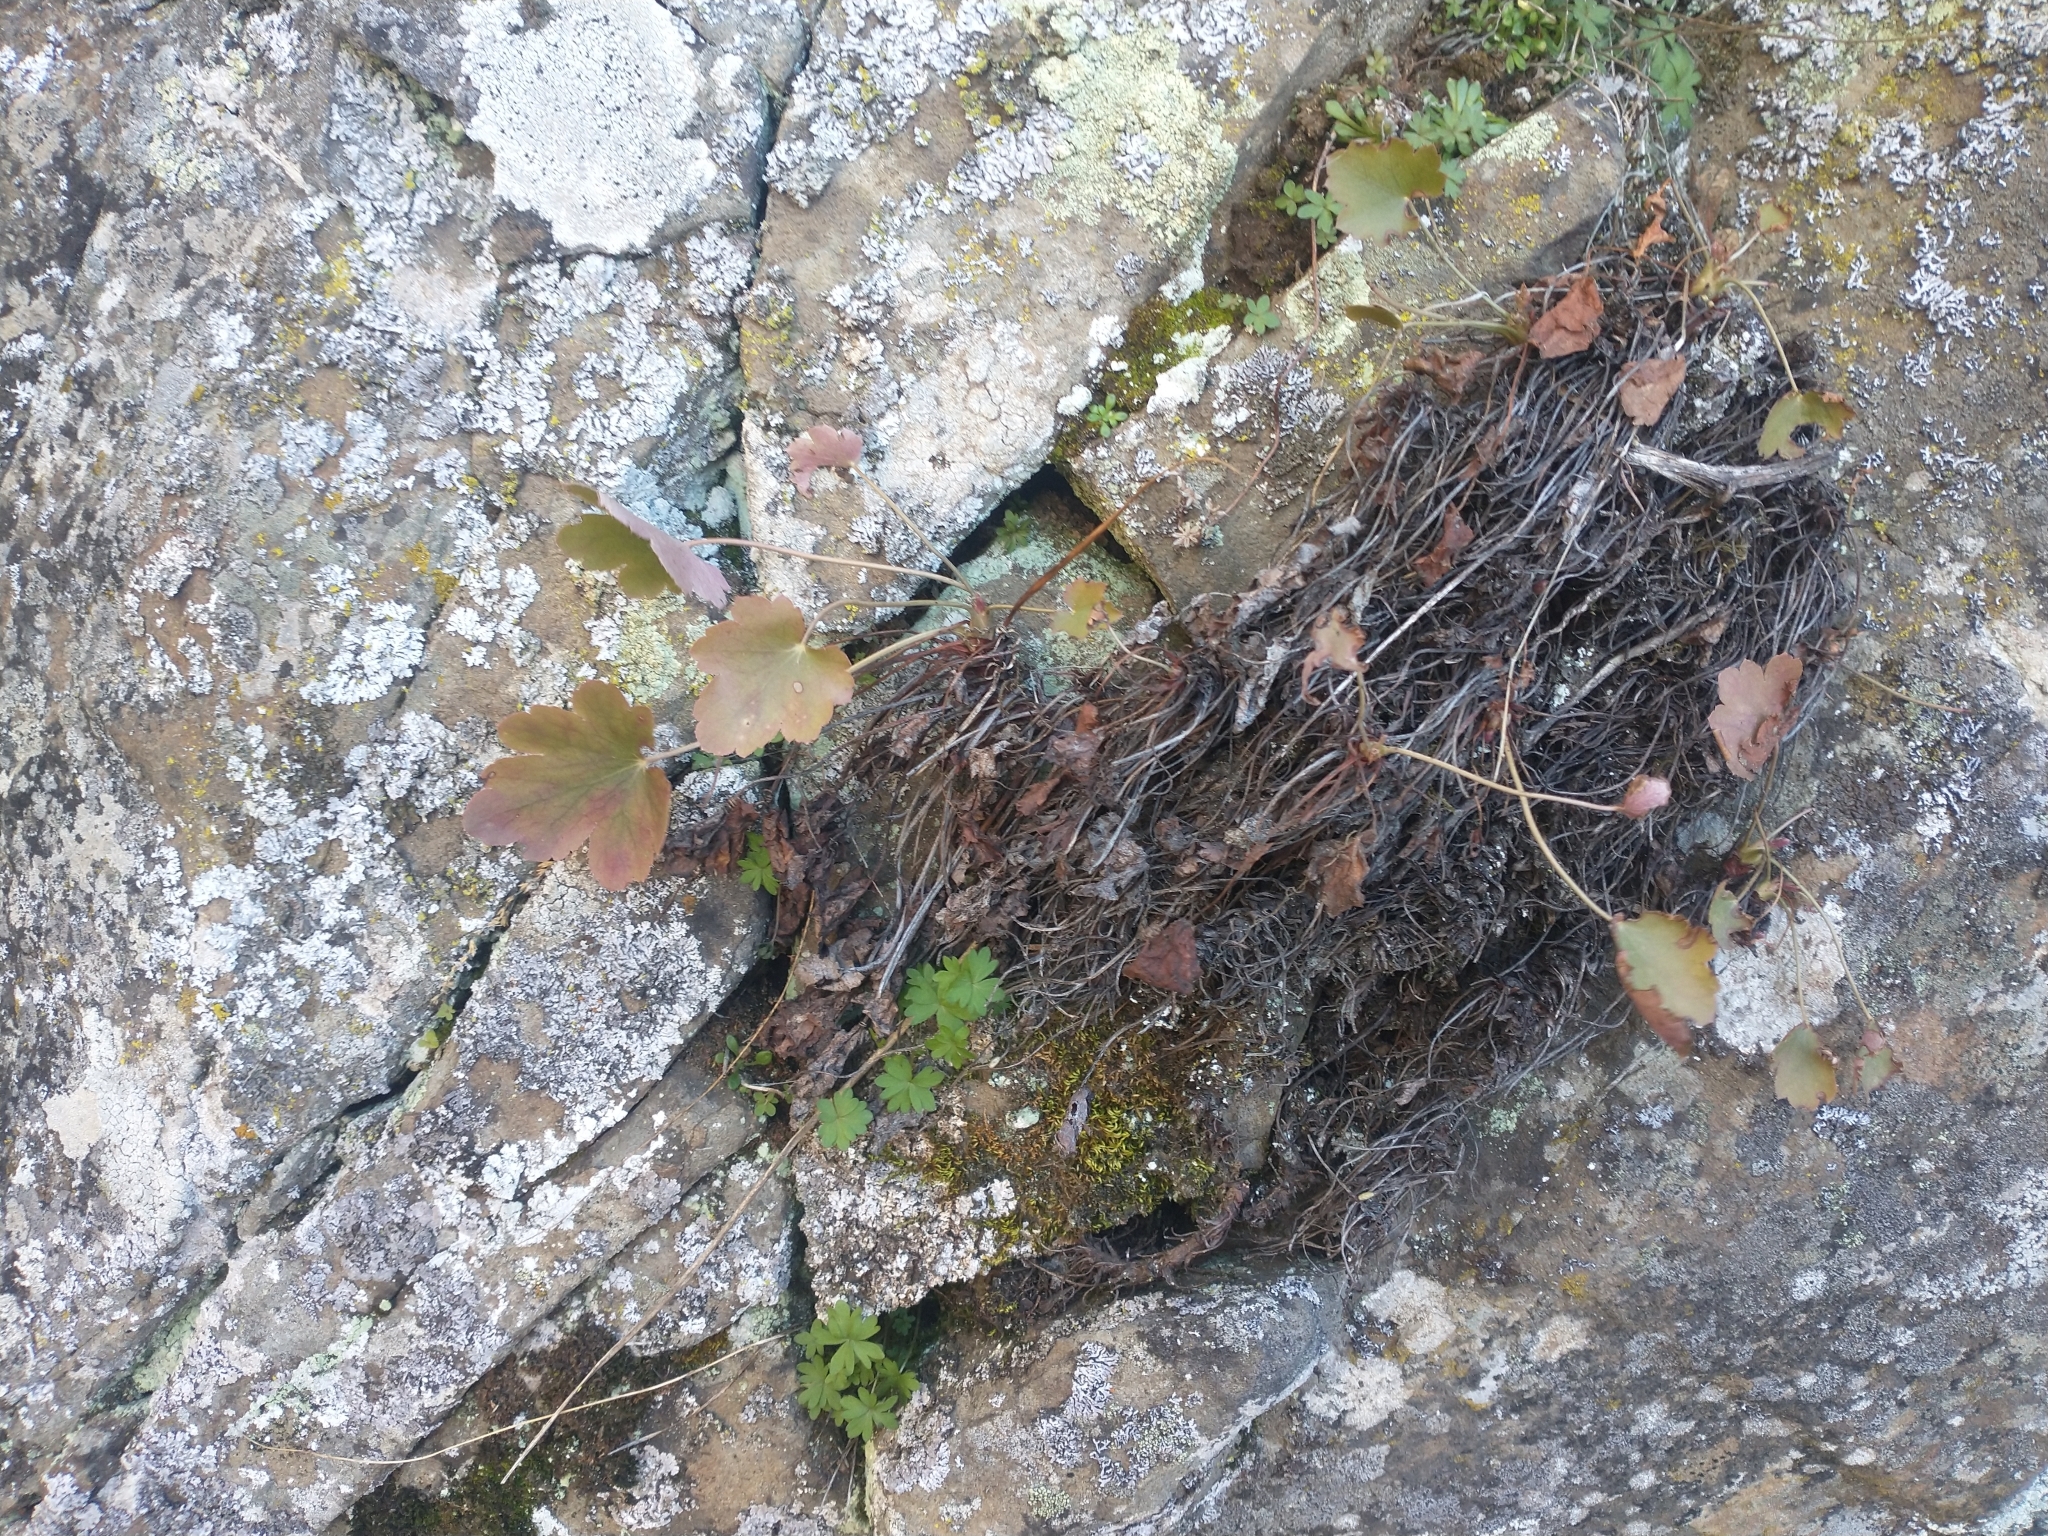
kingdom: Plantae
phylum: Tracheophyta
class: Magnoliopsida
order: Saxifragales
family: Saxifragaceae
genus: Heuchera
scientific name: Heuchera grossulariifolia
